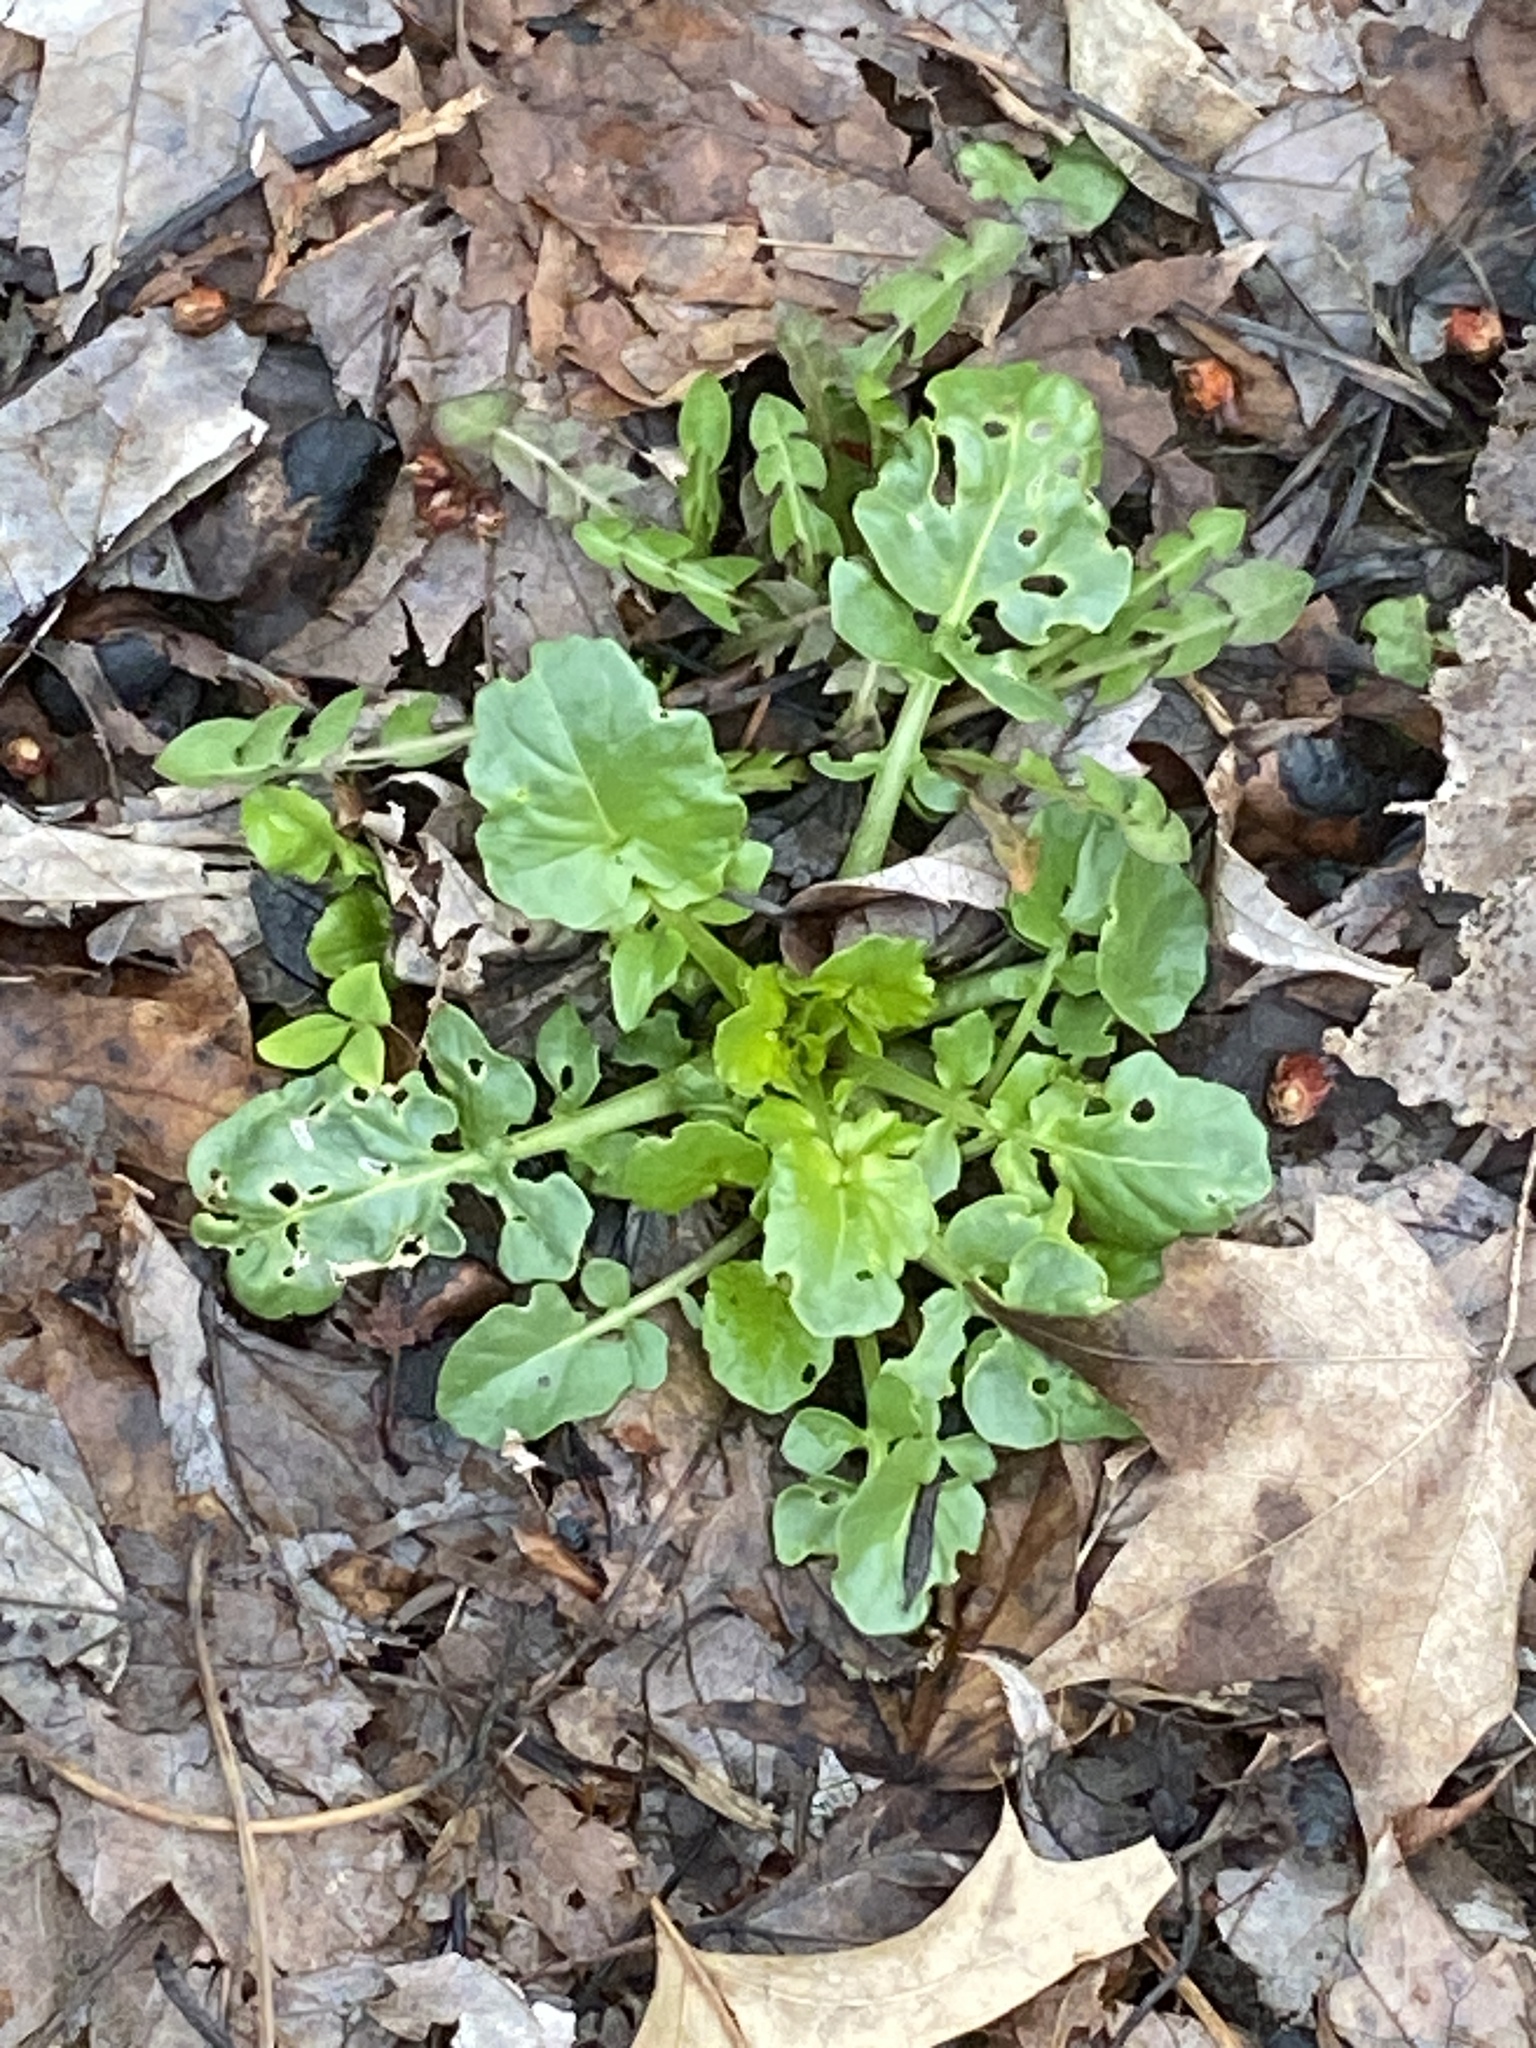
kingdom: Plantae
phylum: Tracheophyta
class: Magnoliopsida
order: Brassicales
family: Brassicaceae
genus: Barbarea
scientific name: Barbarea vulgaris
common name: Cressy-greens
